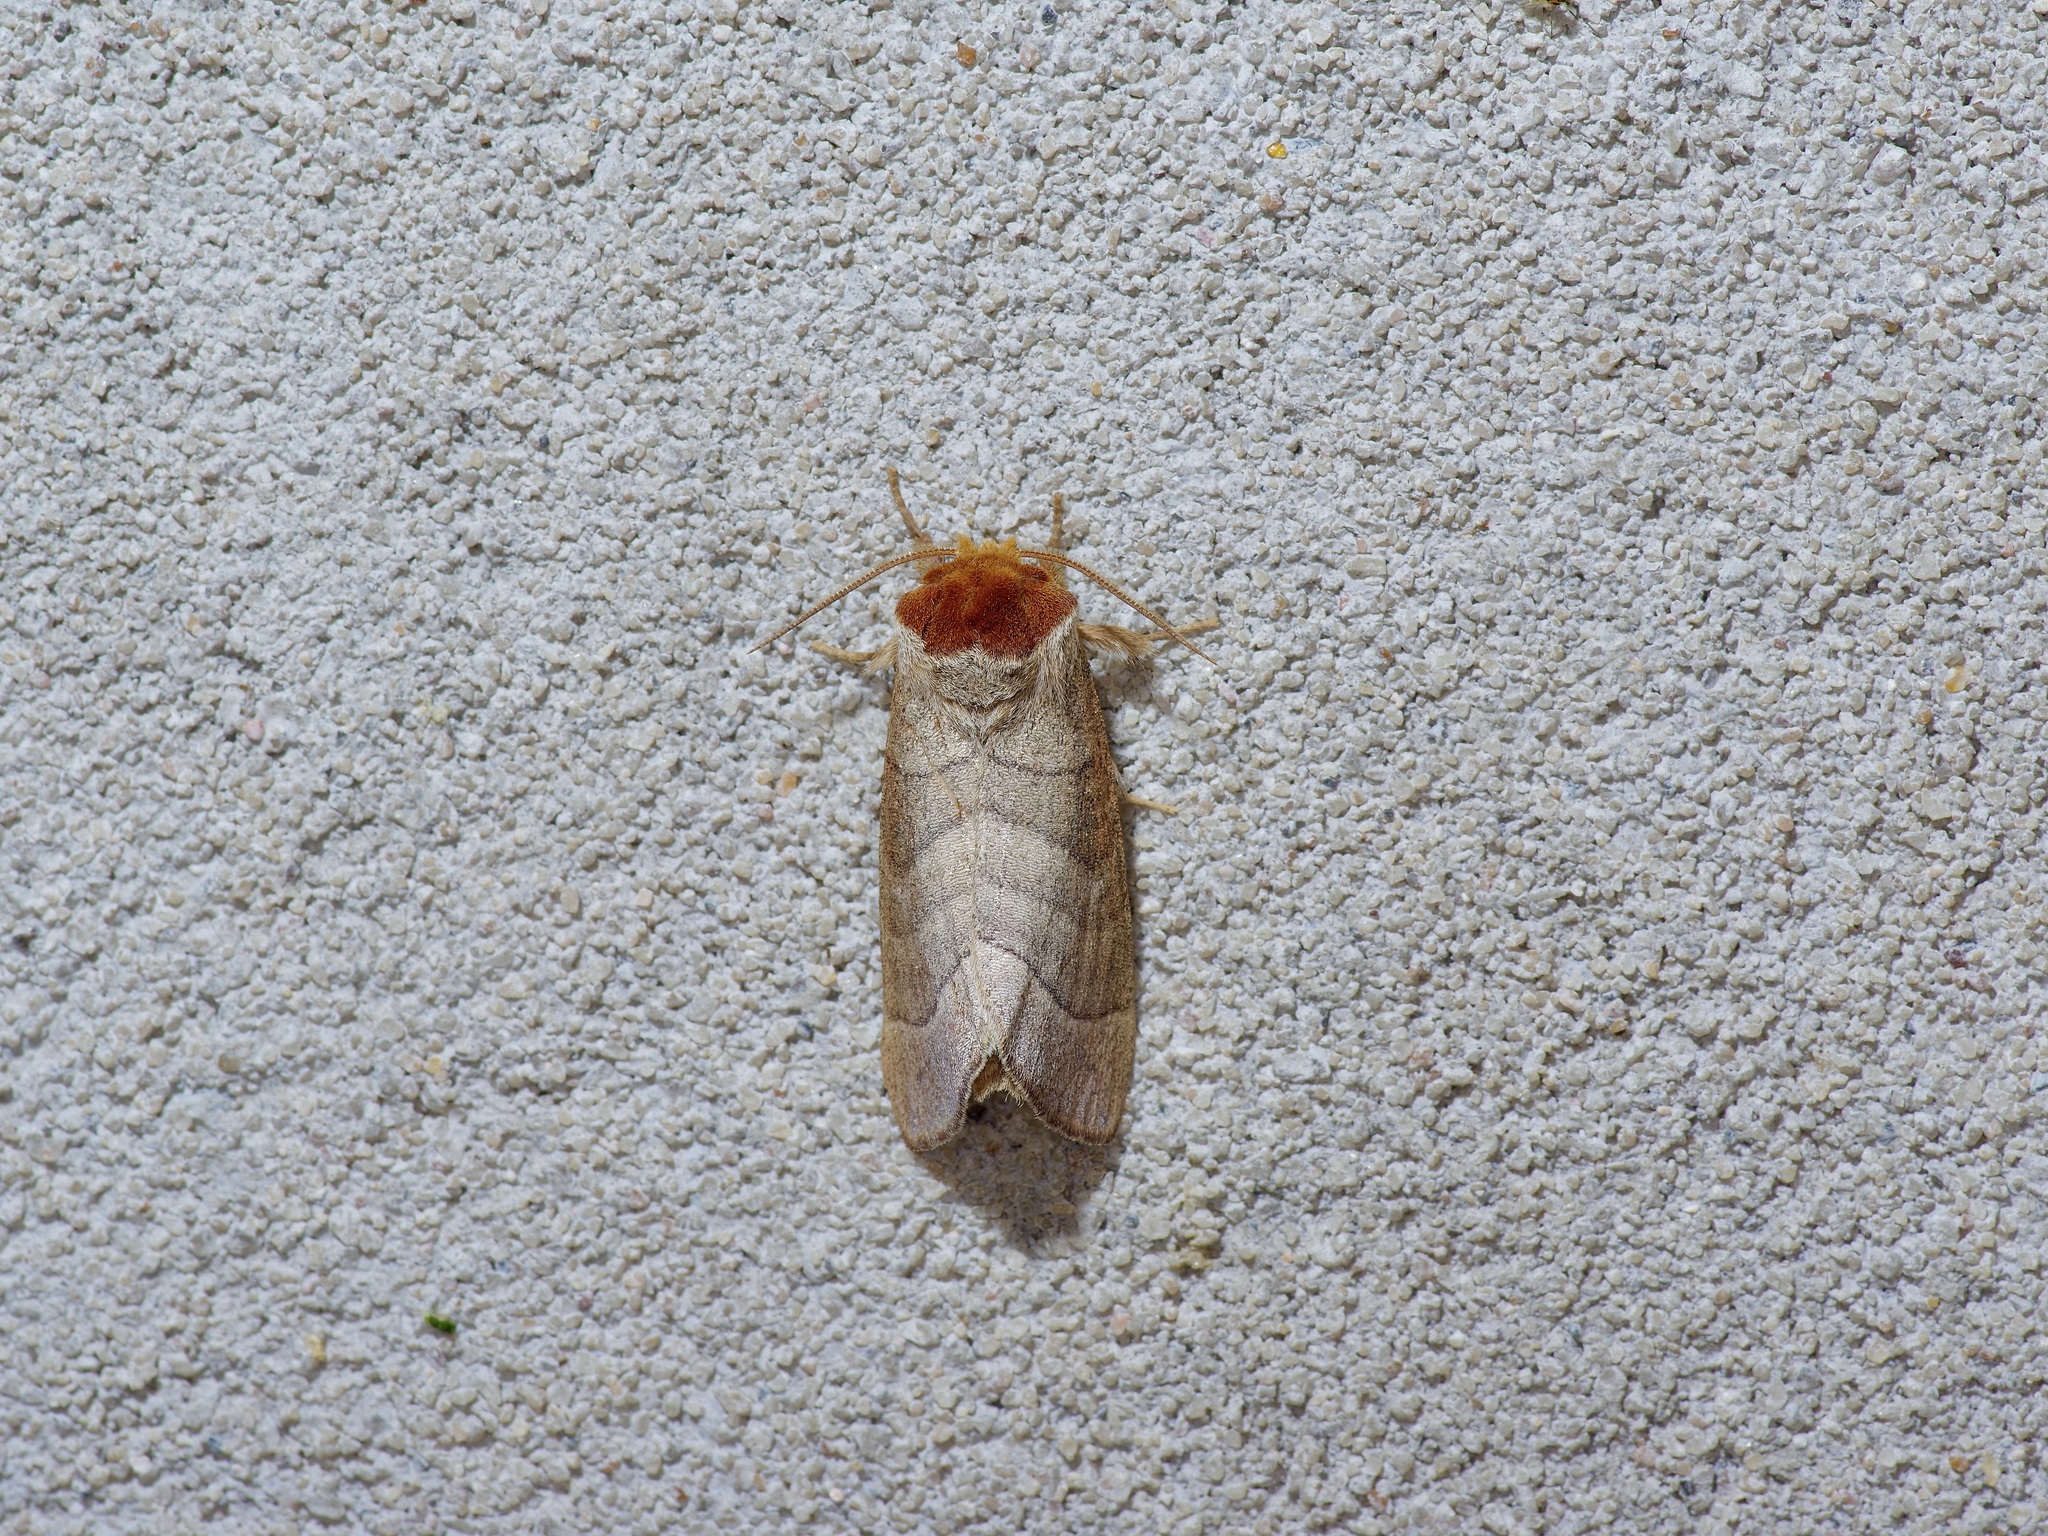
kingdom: Animalia
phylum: Arthropoda
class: Insecta
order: Lepidoptera
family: Notodontidae
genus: Datana
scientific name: Datana integerrima
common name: Walnut caterpillar
